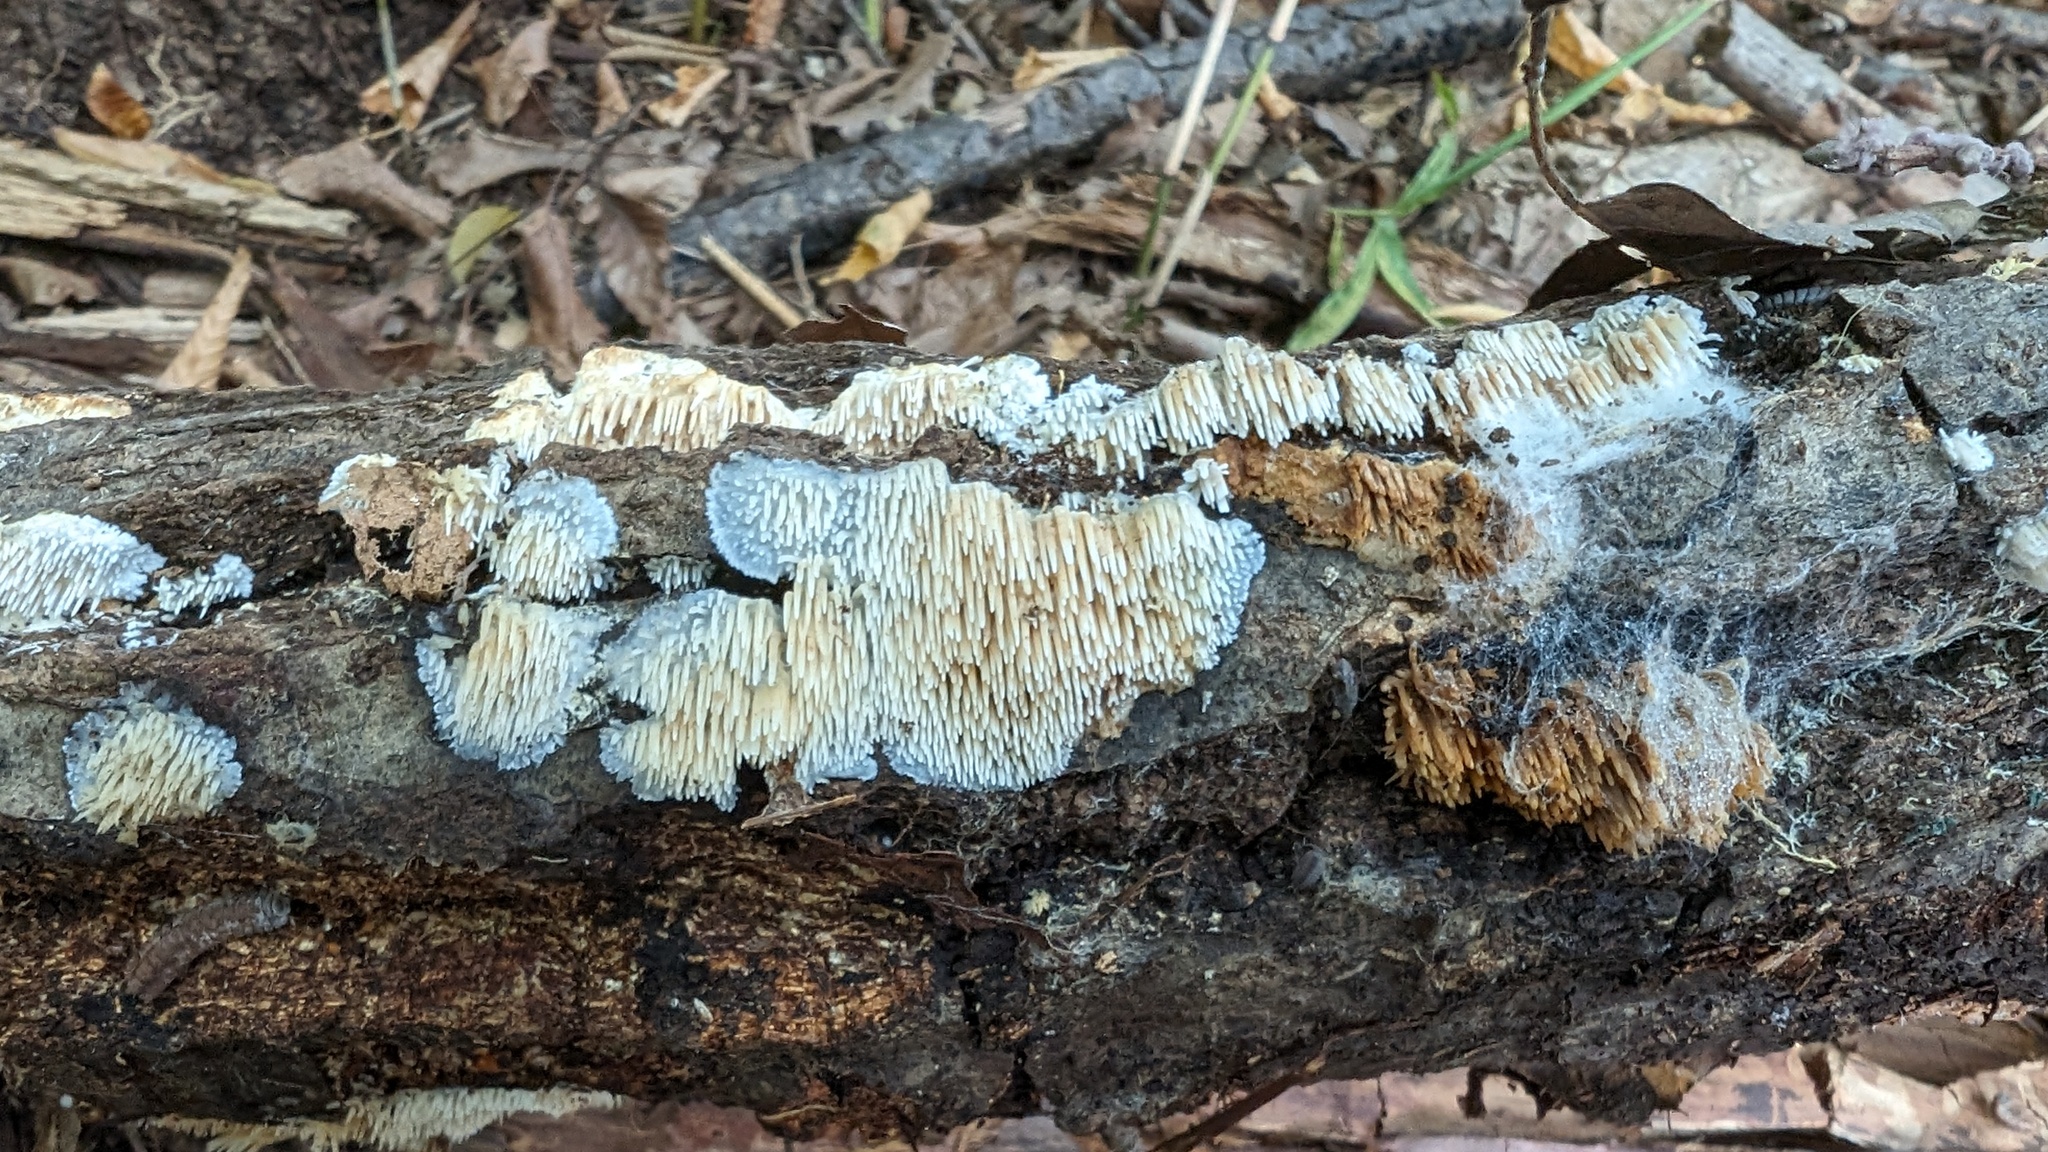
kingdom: Fungi
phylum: Basidiomycota
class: Agaricomycetes
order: Agaricales
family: Radulomycetaceae
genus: Radulomyces
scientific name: Radulomyces copelandii
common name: Asian beauty
